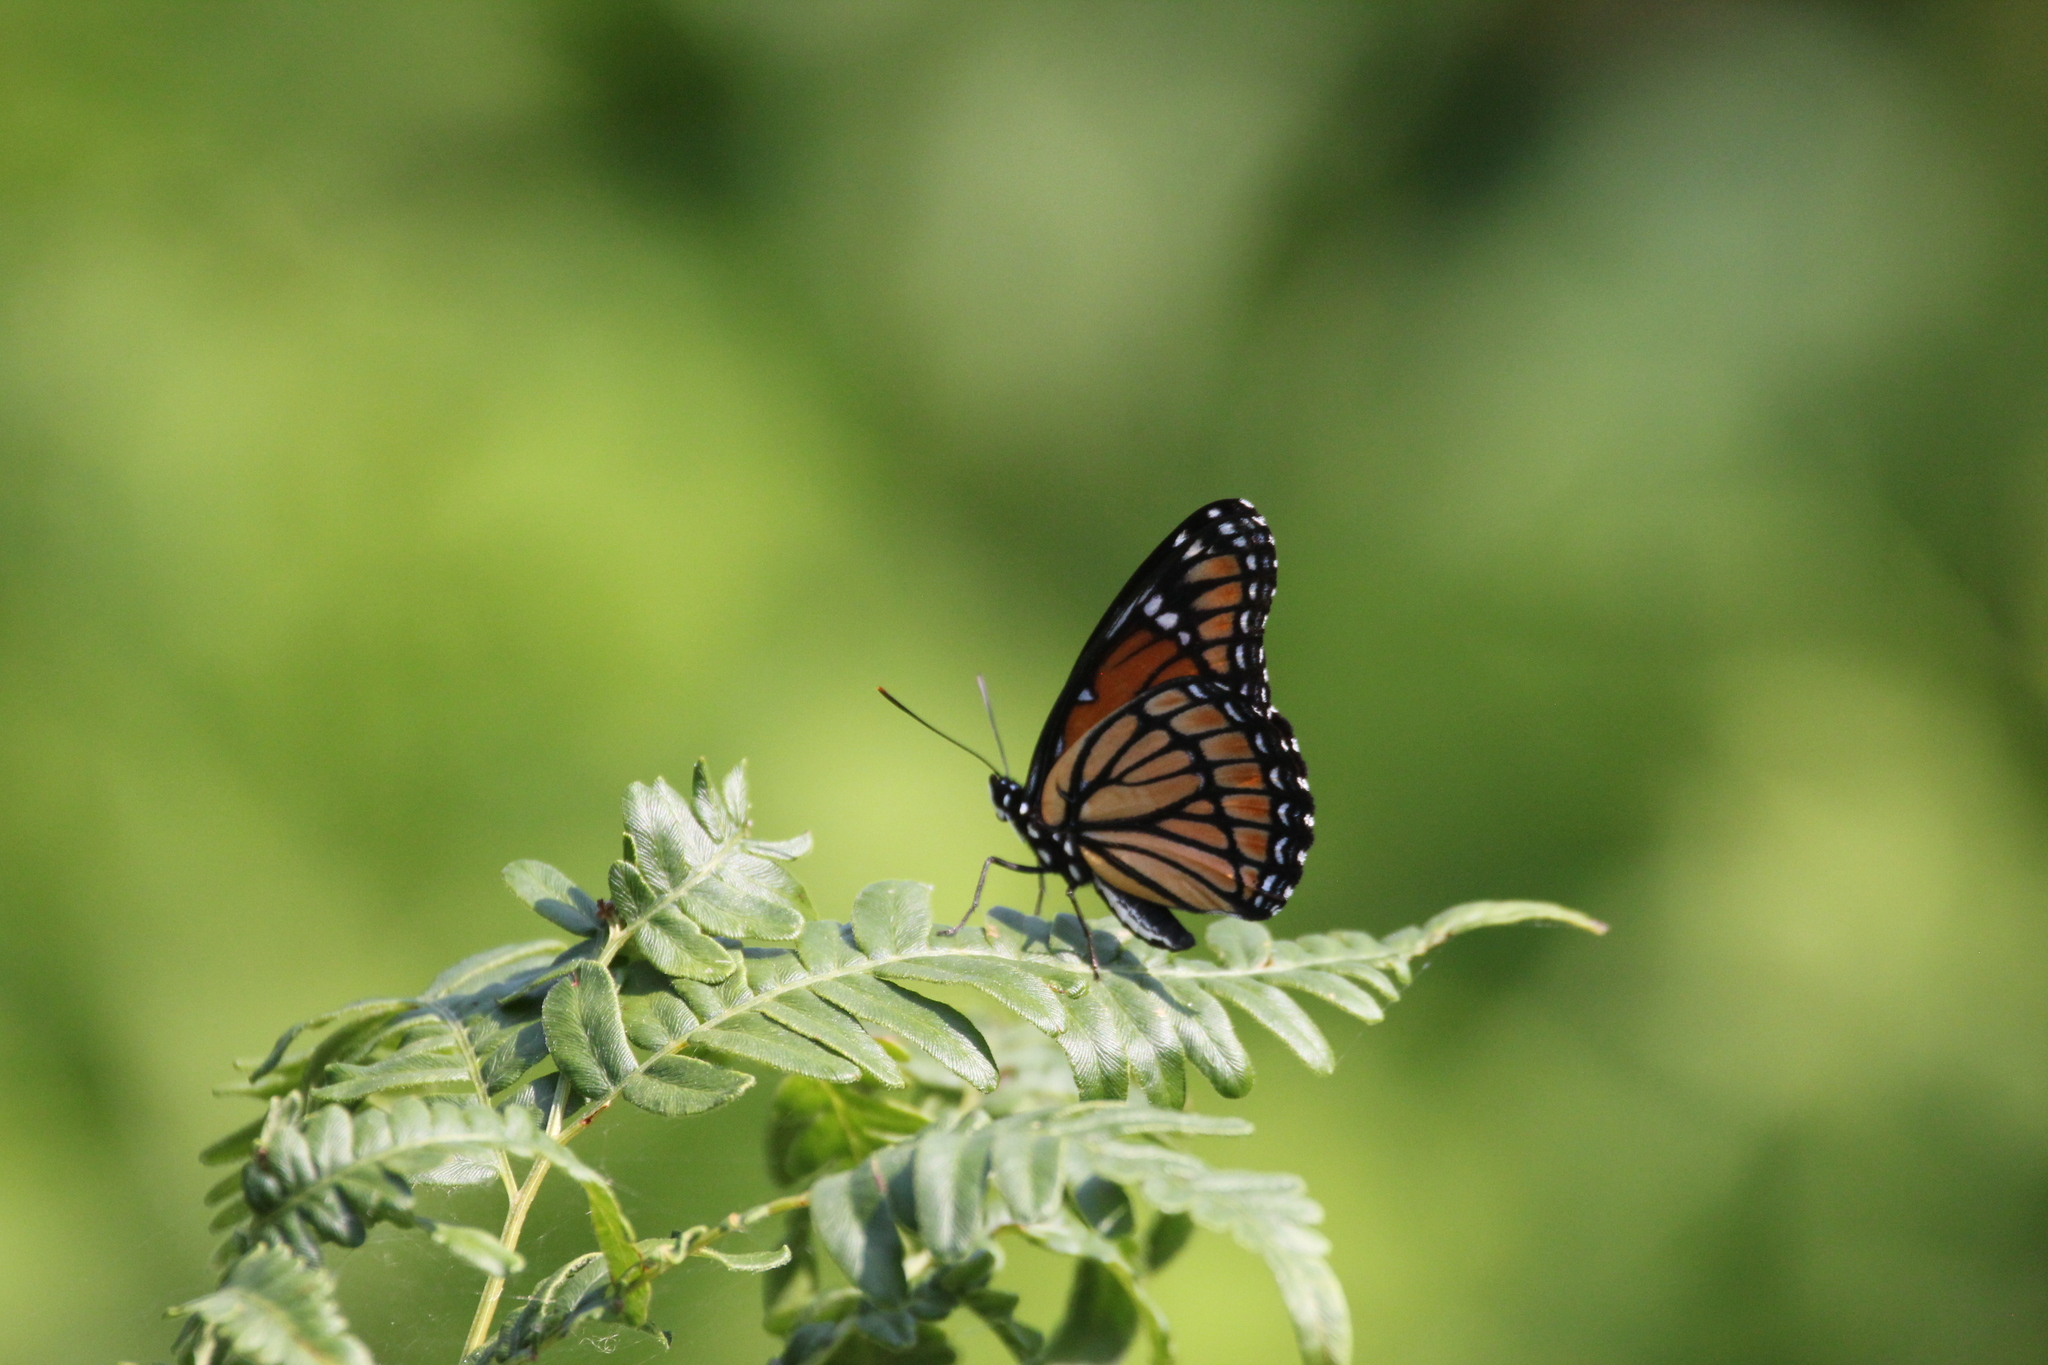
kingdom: Animalia
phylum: Arthropoda
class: Insecta
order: Lepidoptera
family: Nymphalidae
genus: Limenitis
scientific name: Limenitis archippus
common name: Viceroy
